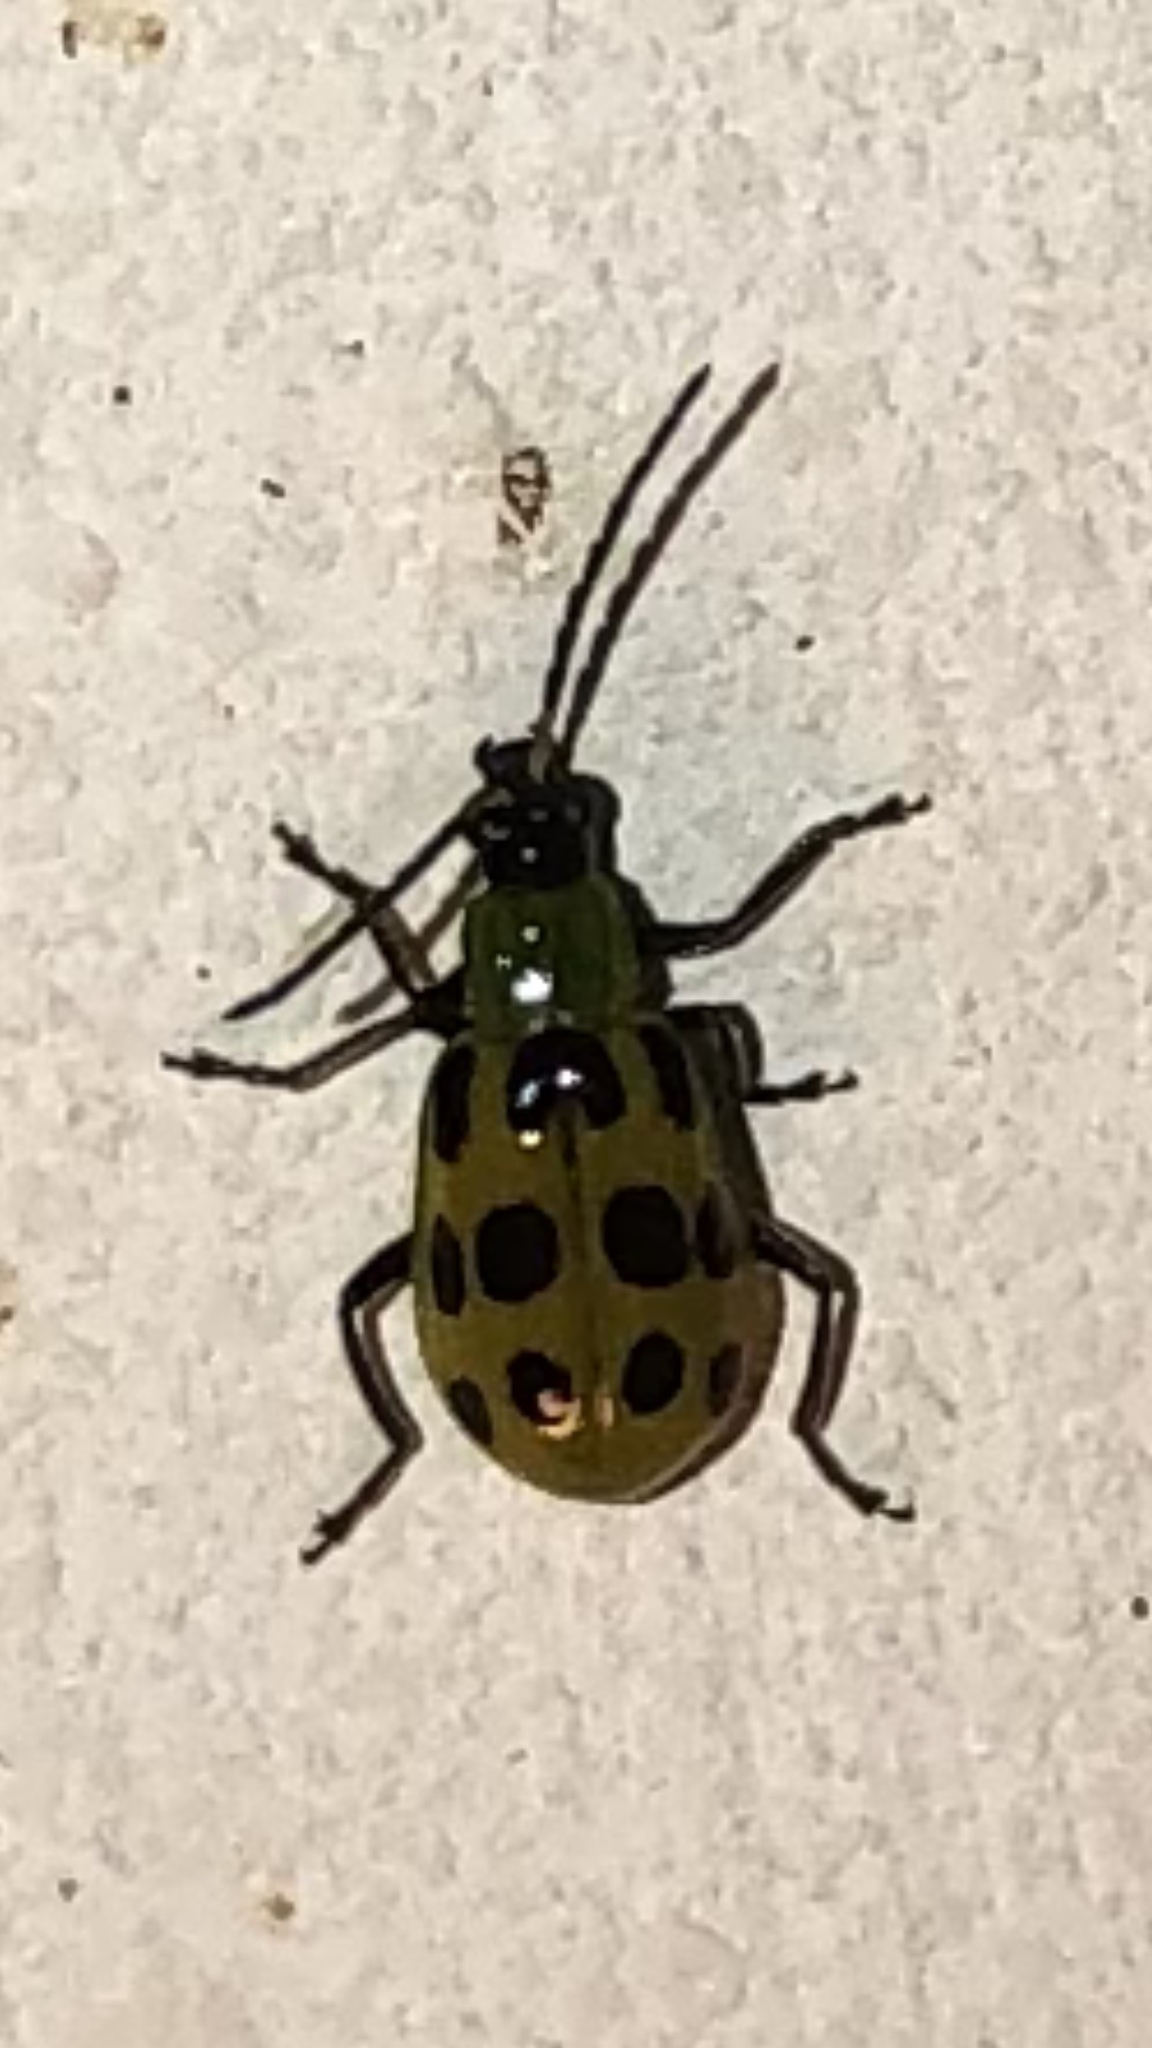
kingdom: Animalia
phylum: Arthropoda
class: Insecta
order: Coleoptera
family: Chrysomelidae
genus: Diabrotica
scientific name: Diabrotica undecimpunctata
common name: Spotted cucumber beetle
